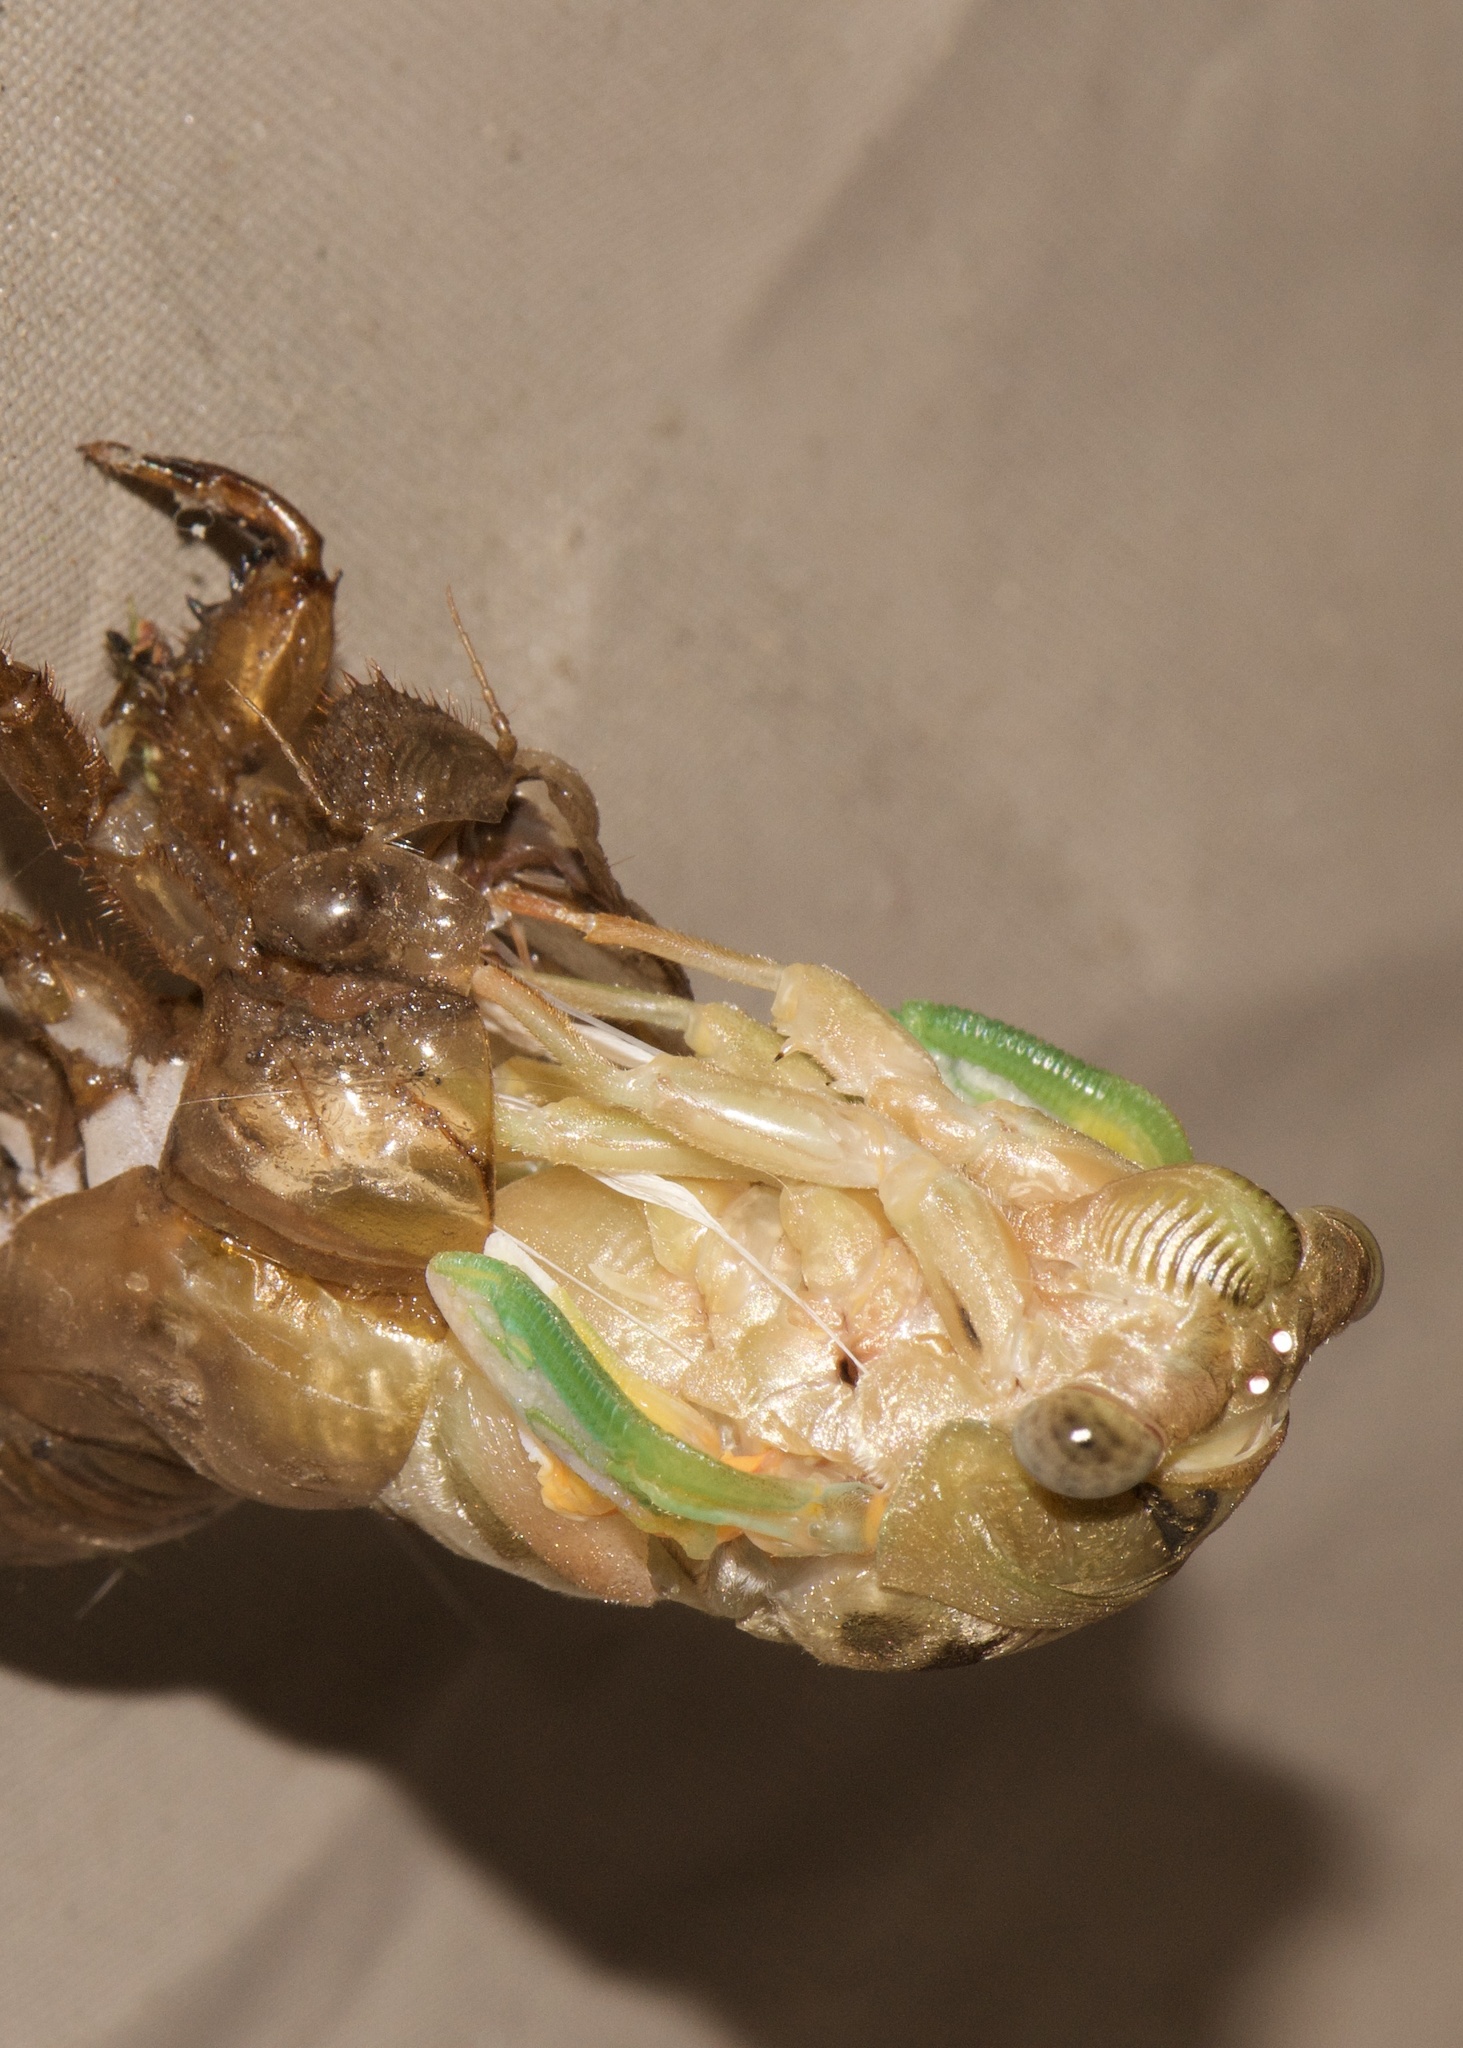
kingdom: Animalia
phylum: Arthropoda
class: Insecta
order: Hemiptera
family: Cicadidae
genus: Megatibicen
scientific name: Megatibicen resh
